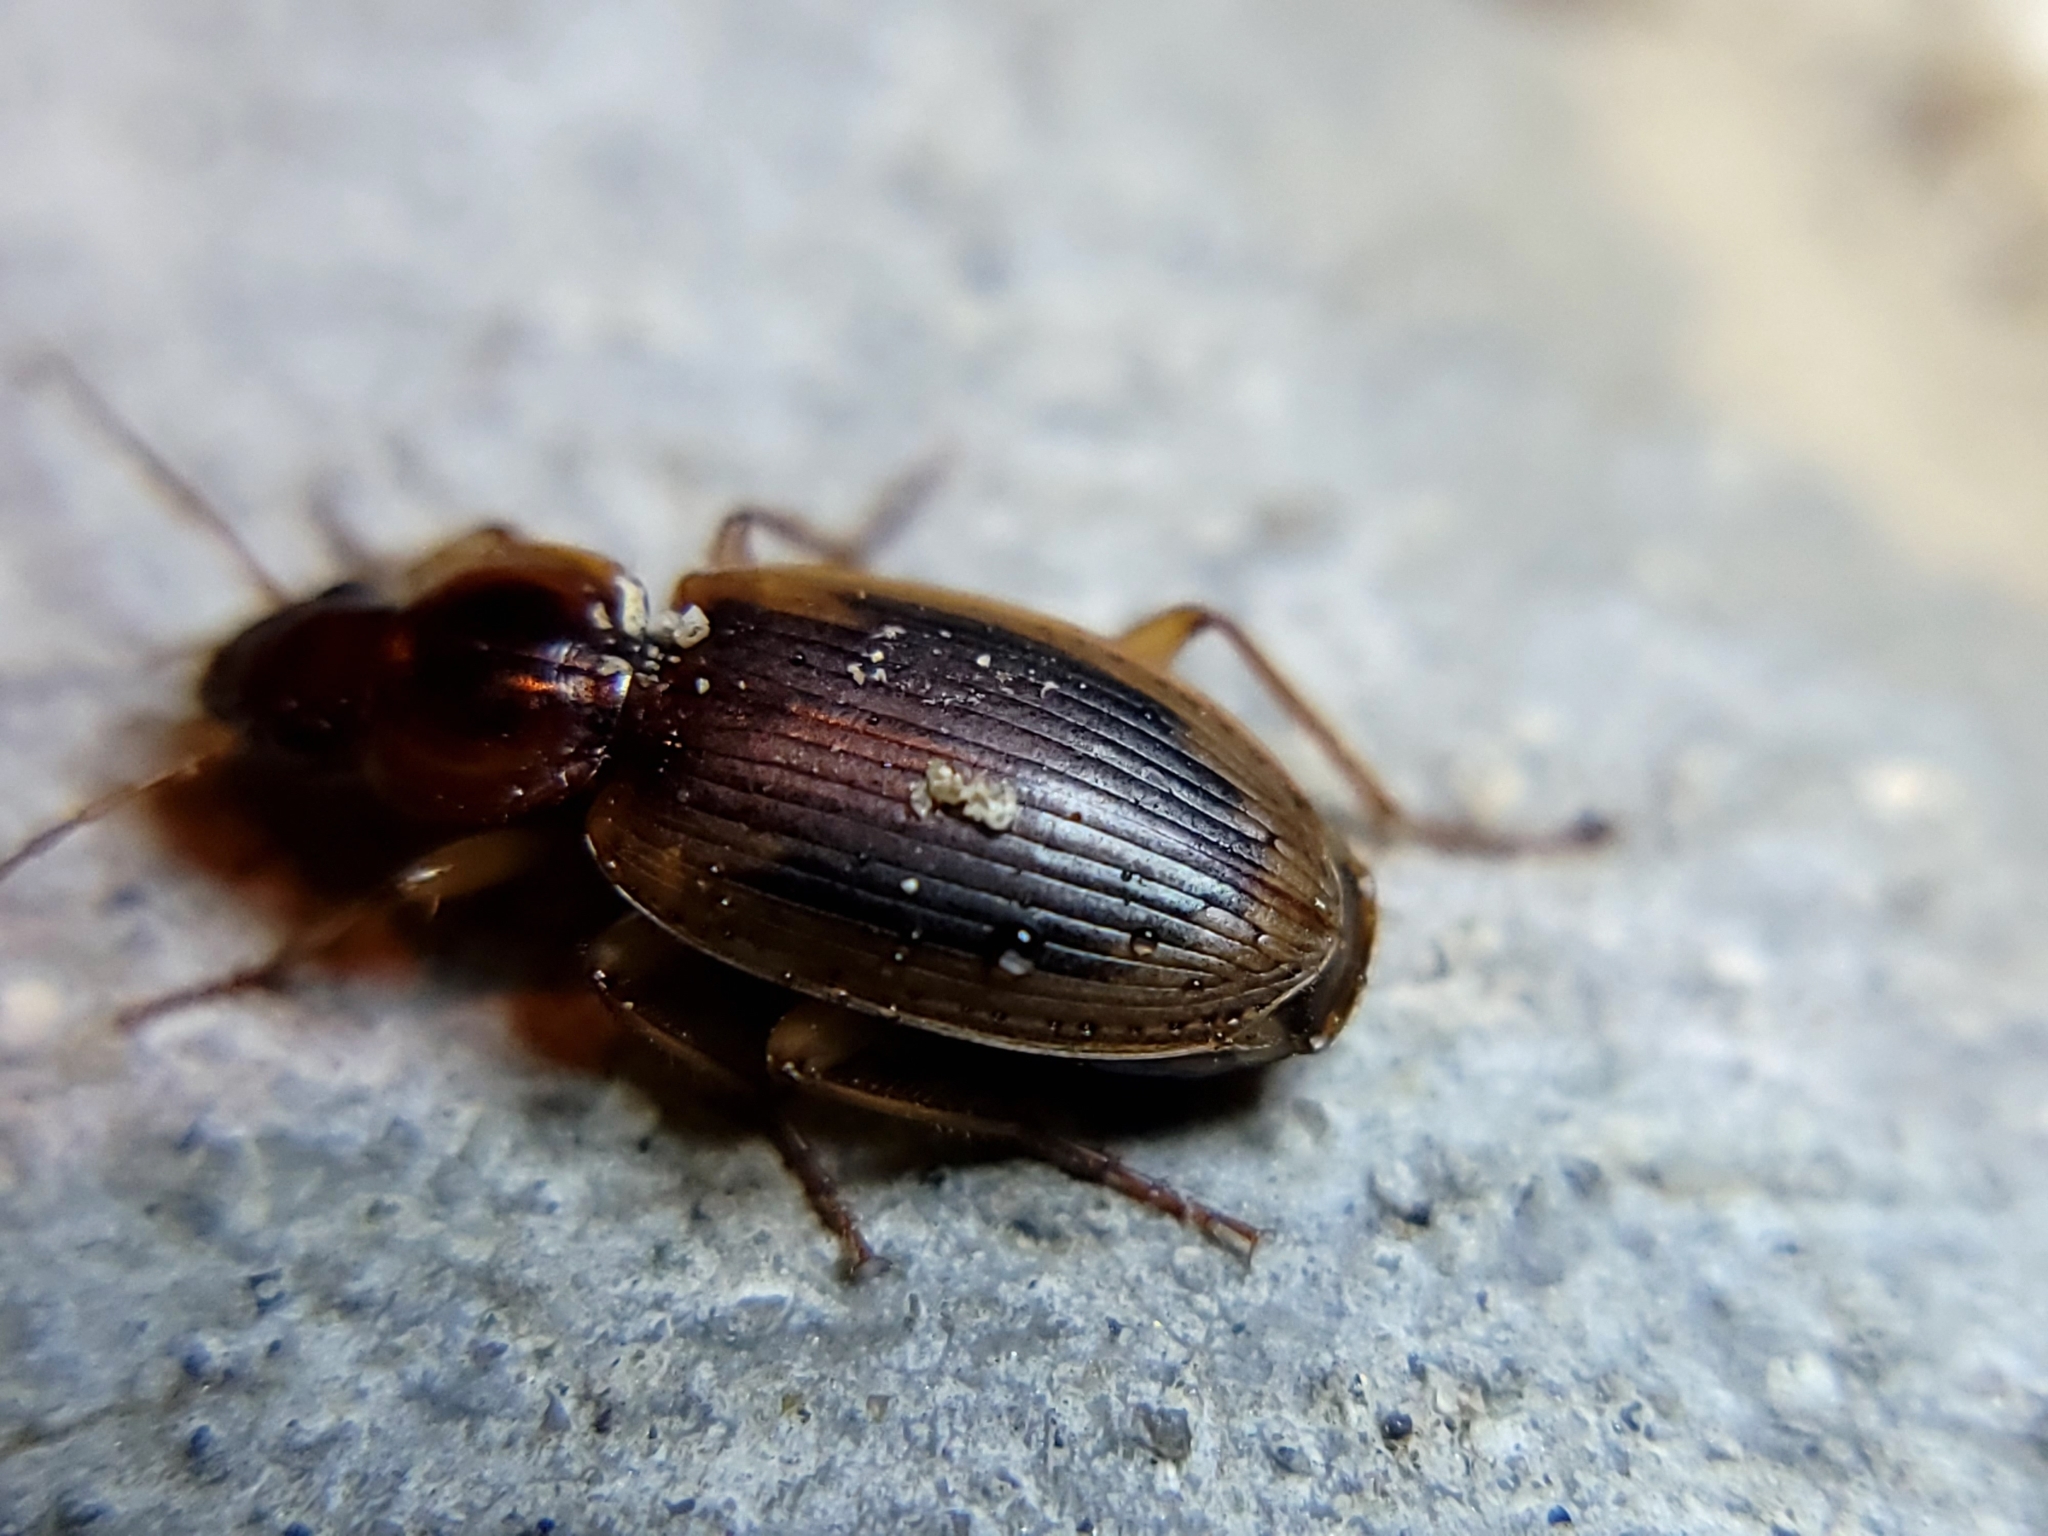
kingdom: Animalia
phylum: Arthropoda
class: Insecta
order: Coleoptera
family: Carabidae
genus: Tanystoma
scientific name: Tanystoma maculicolle
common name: Tule beetle
